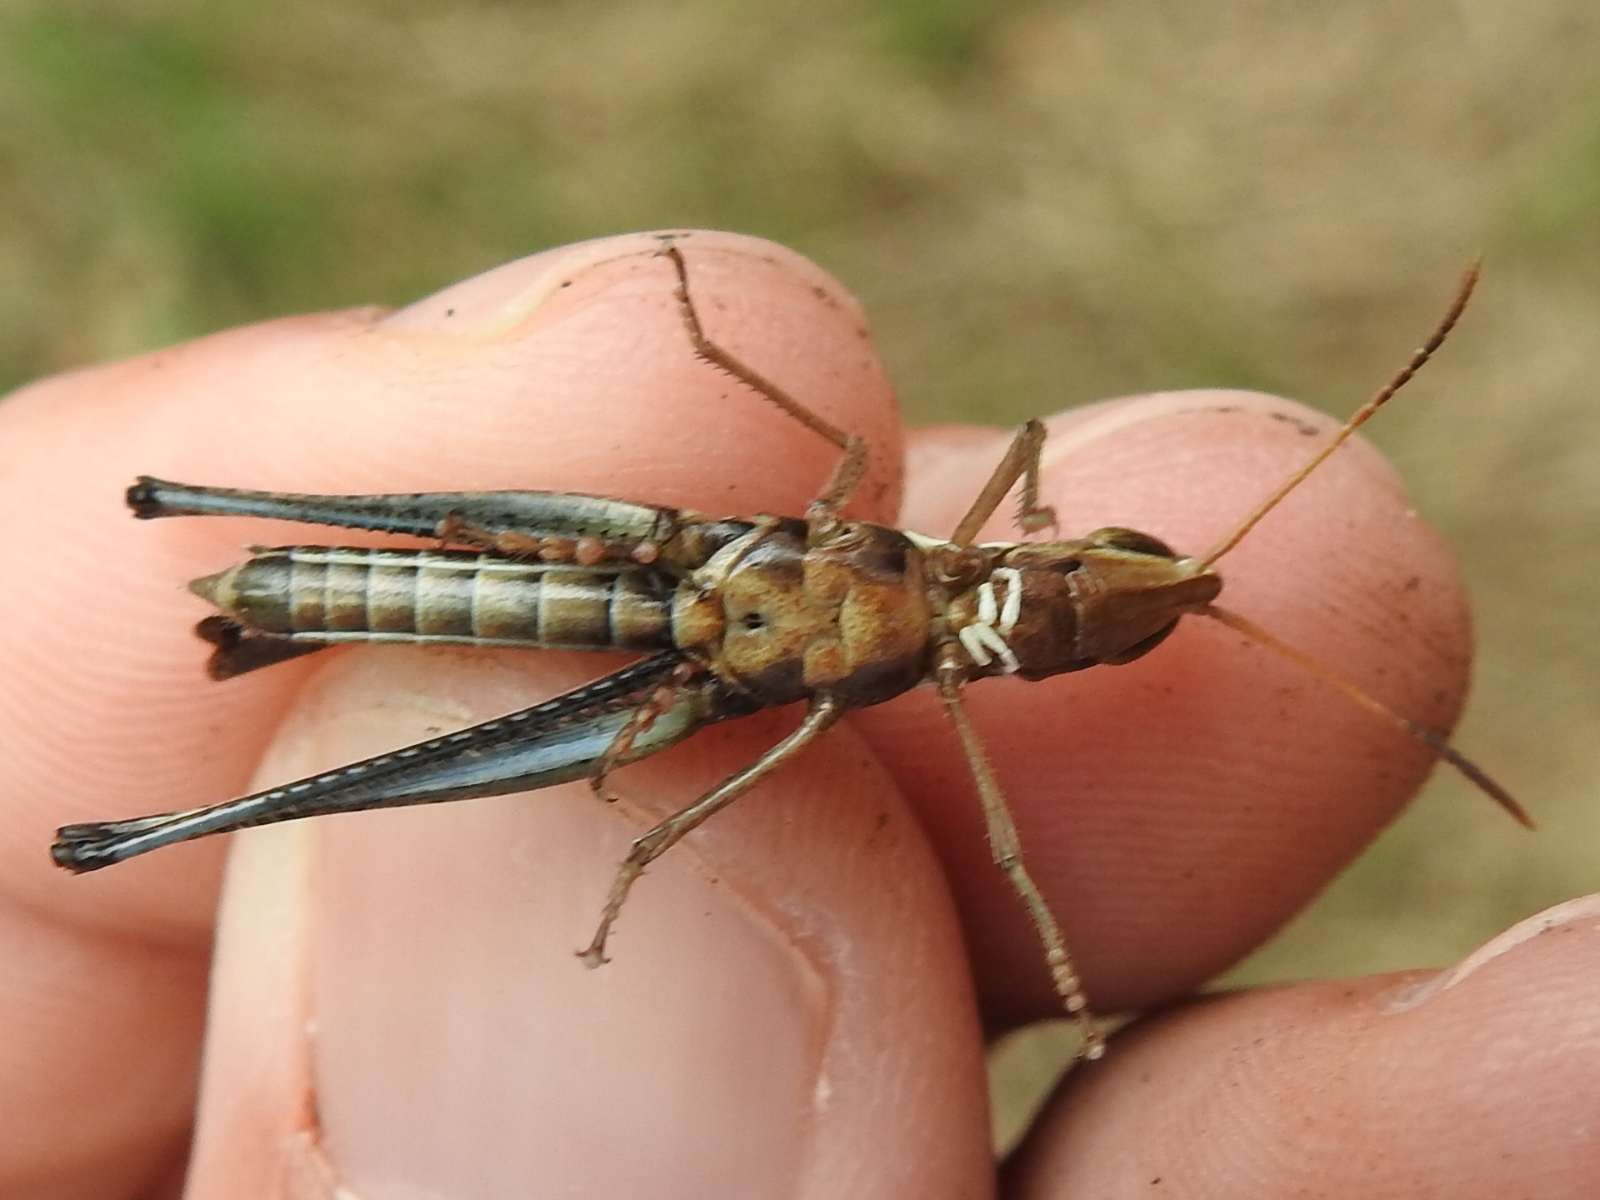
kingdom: Animalia
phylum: Arthropoda
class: Insecta
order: Orthoptera
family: Acrididae
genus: Syrbula
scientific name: Syrbula montezuma
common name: Montezuma's grasshopper
